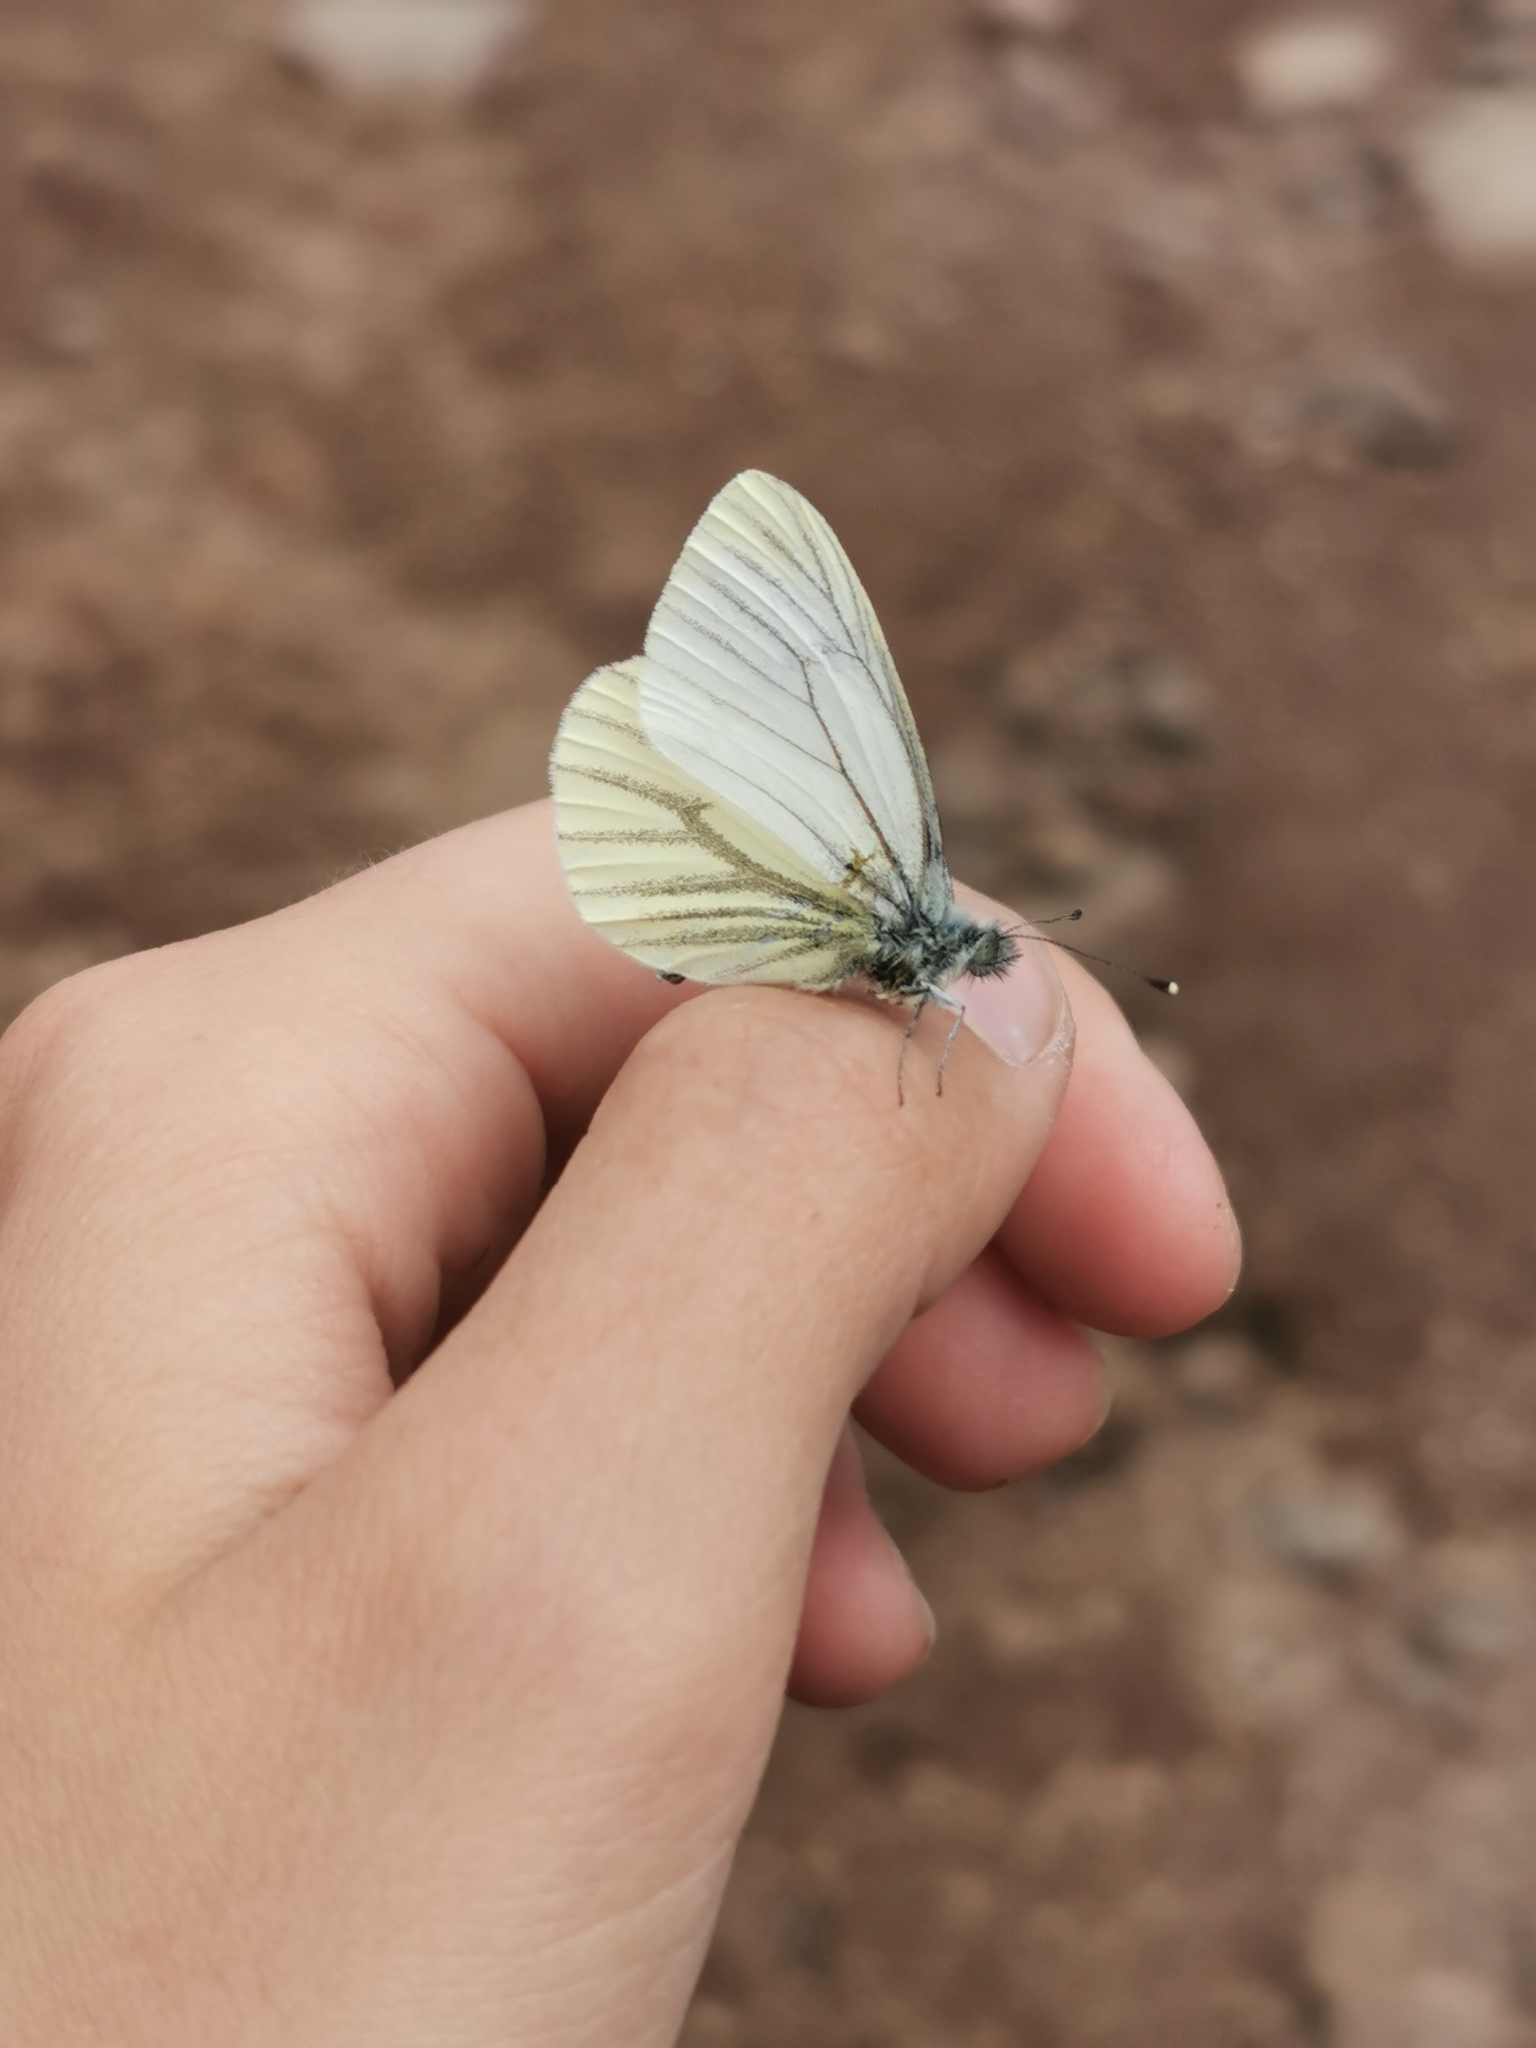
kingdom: Animalia
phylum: Arthropoda
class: Insecta
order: Lepidoptera
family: Pieridae
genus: Pieris
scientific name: Pieris napi
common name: Green-veined white
